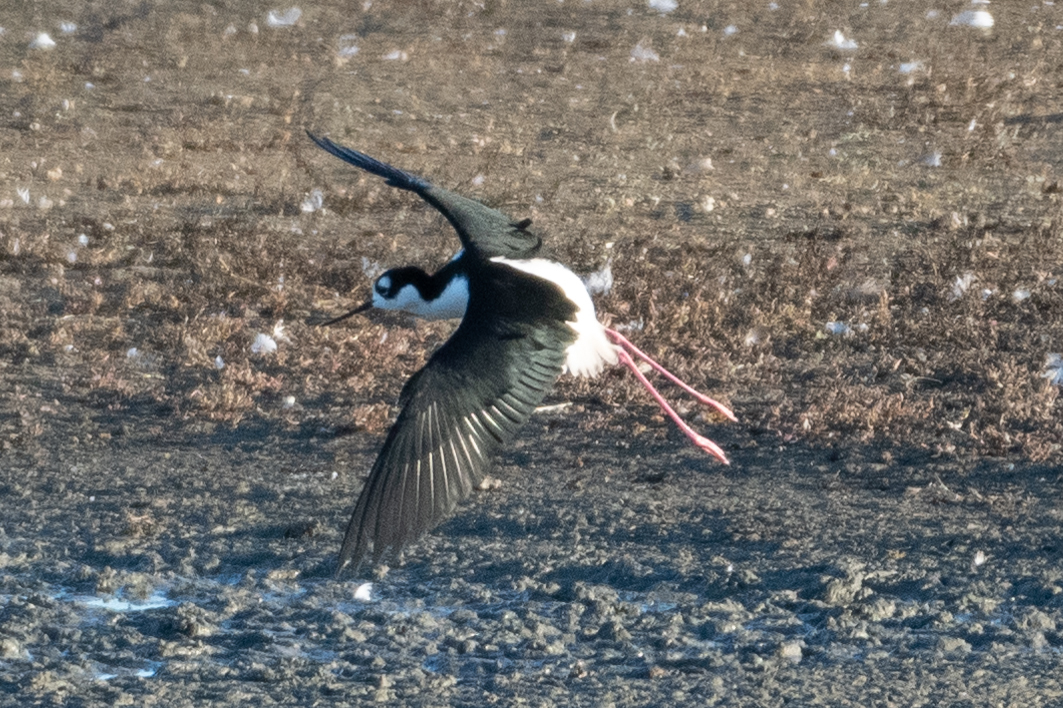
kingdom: Animalia
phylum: Chordata
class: Aves
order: Charadriiformes
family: Recurvirostridae
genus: Himantopus
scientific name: Himantopus mexicanus
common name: Black-necked stilt
